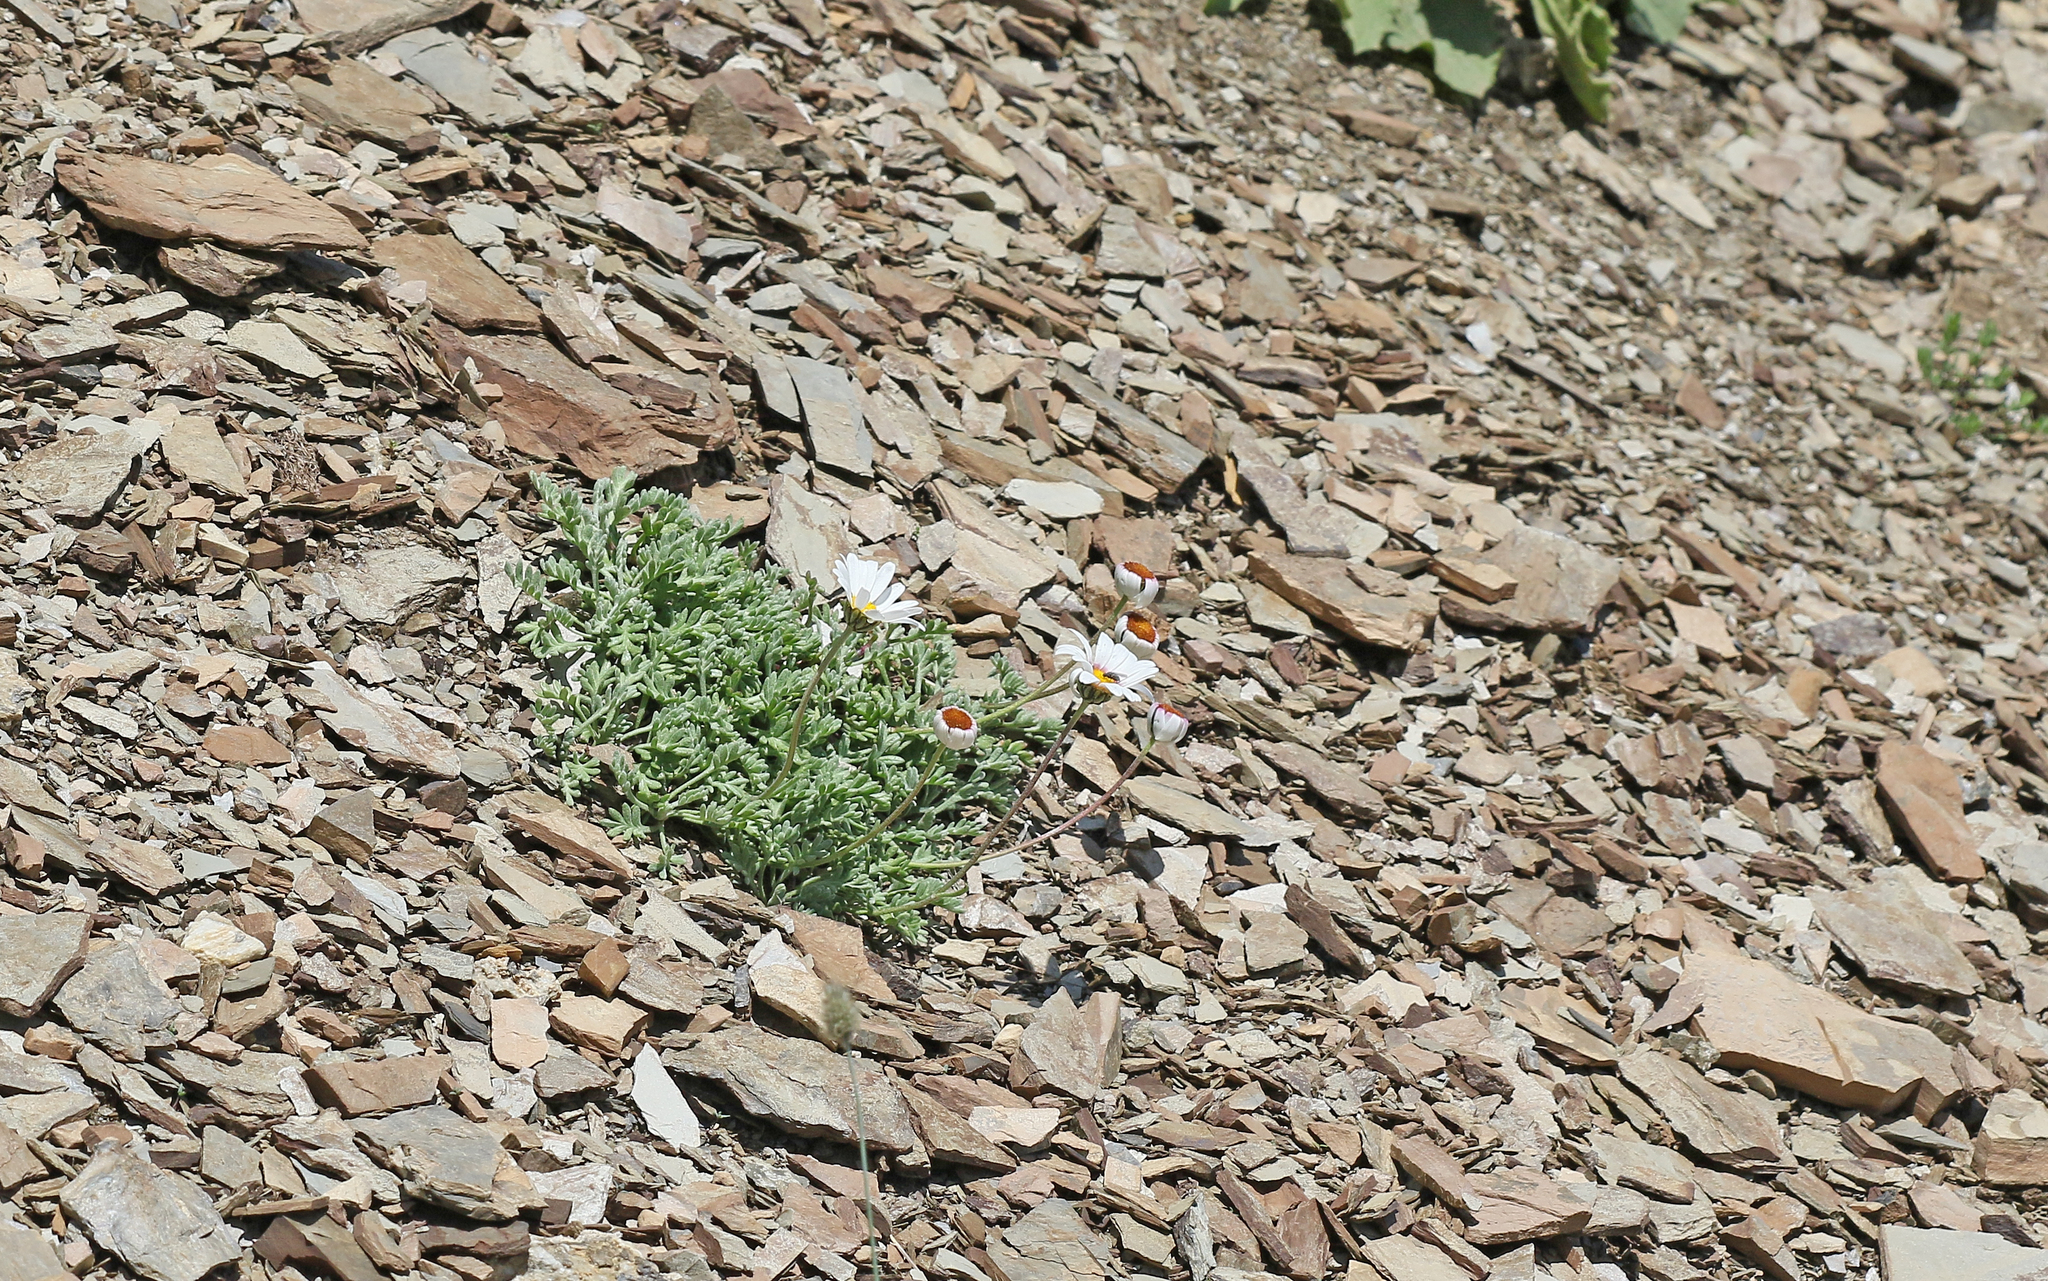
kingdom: Plantae
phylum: Tracheophyta
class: Magnoliopsida
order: Asterales
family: Asteraceae
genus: Leucanthemopsis
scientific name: Leucanthemopsis alpina
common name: Alpine moon daisy
